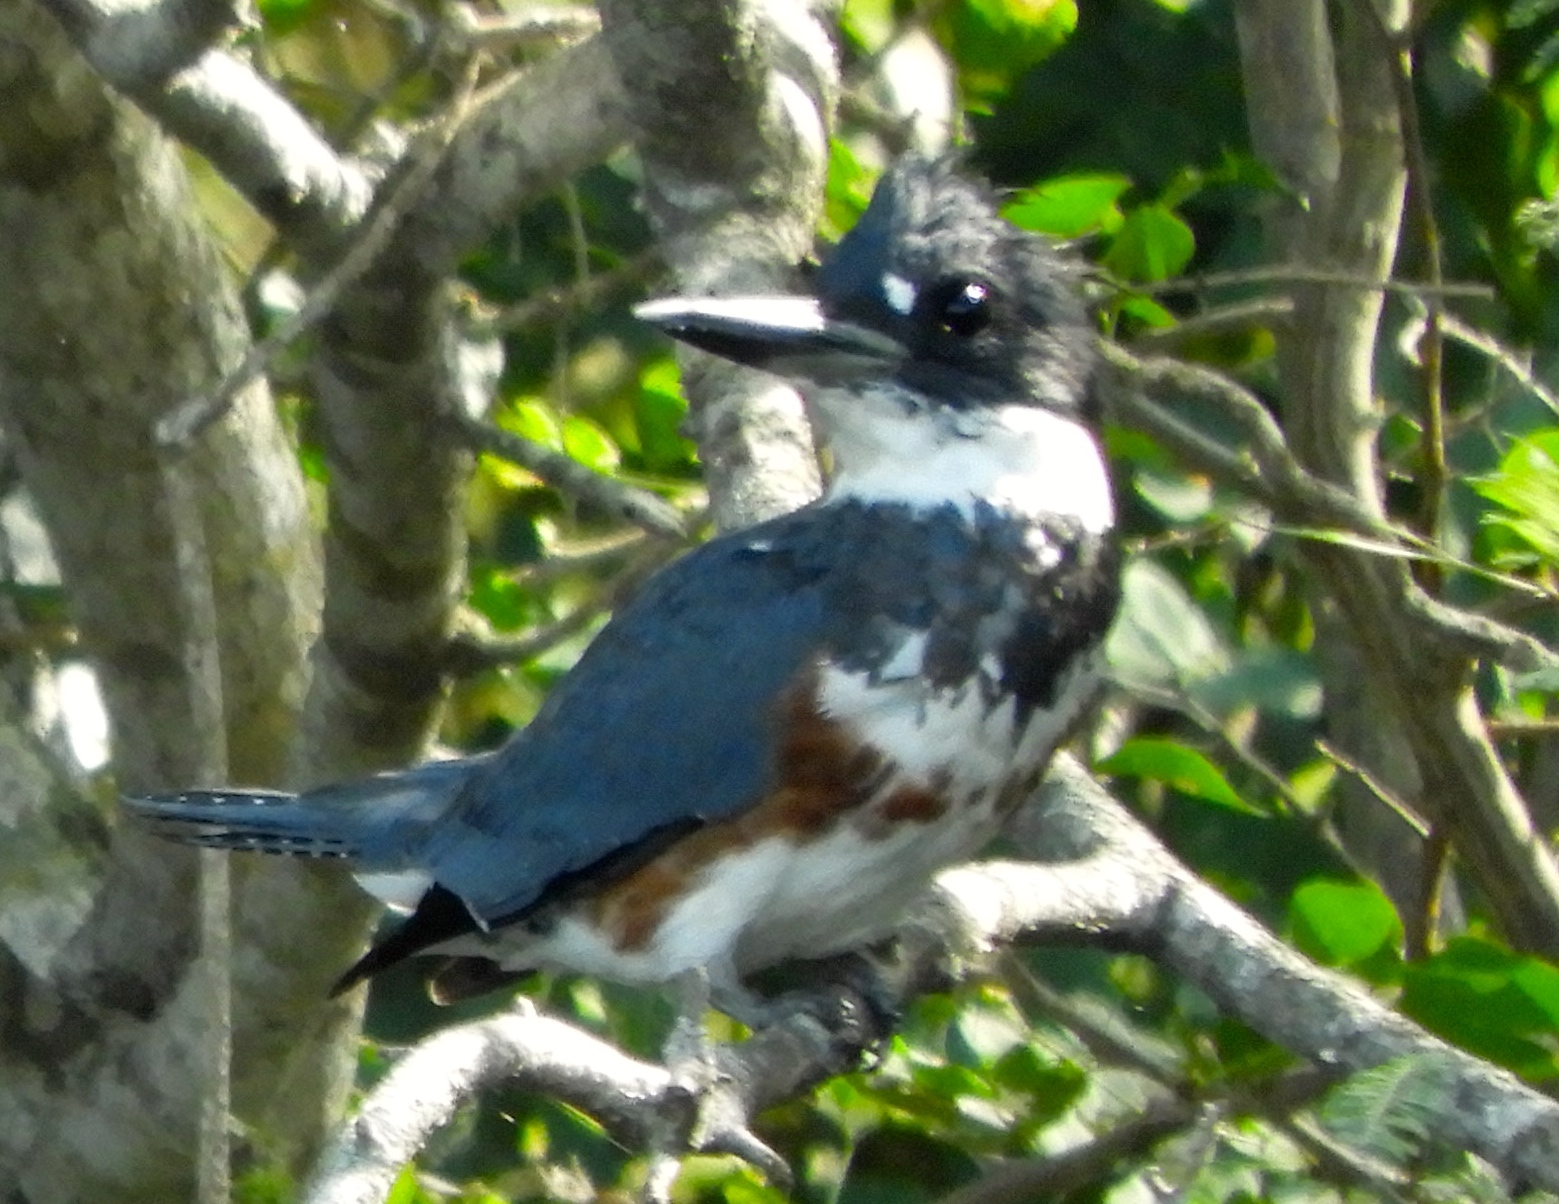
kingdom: Animalia
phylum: Chordata
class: Aves
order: Coraciiformes
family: Alcedinidae
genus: Megaceryle
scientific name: Megaceryle alcyon
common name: Belted kingfisher
